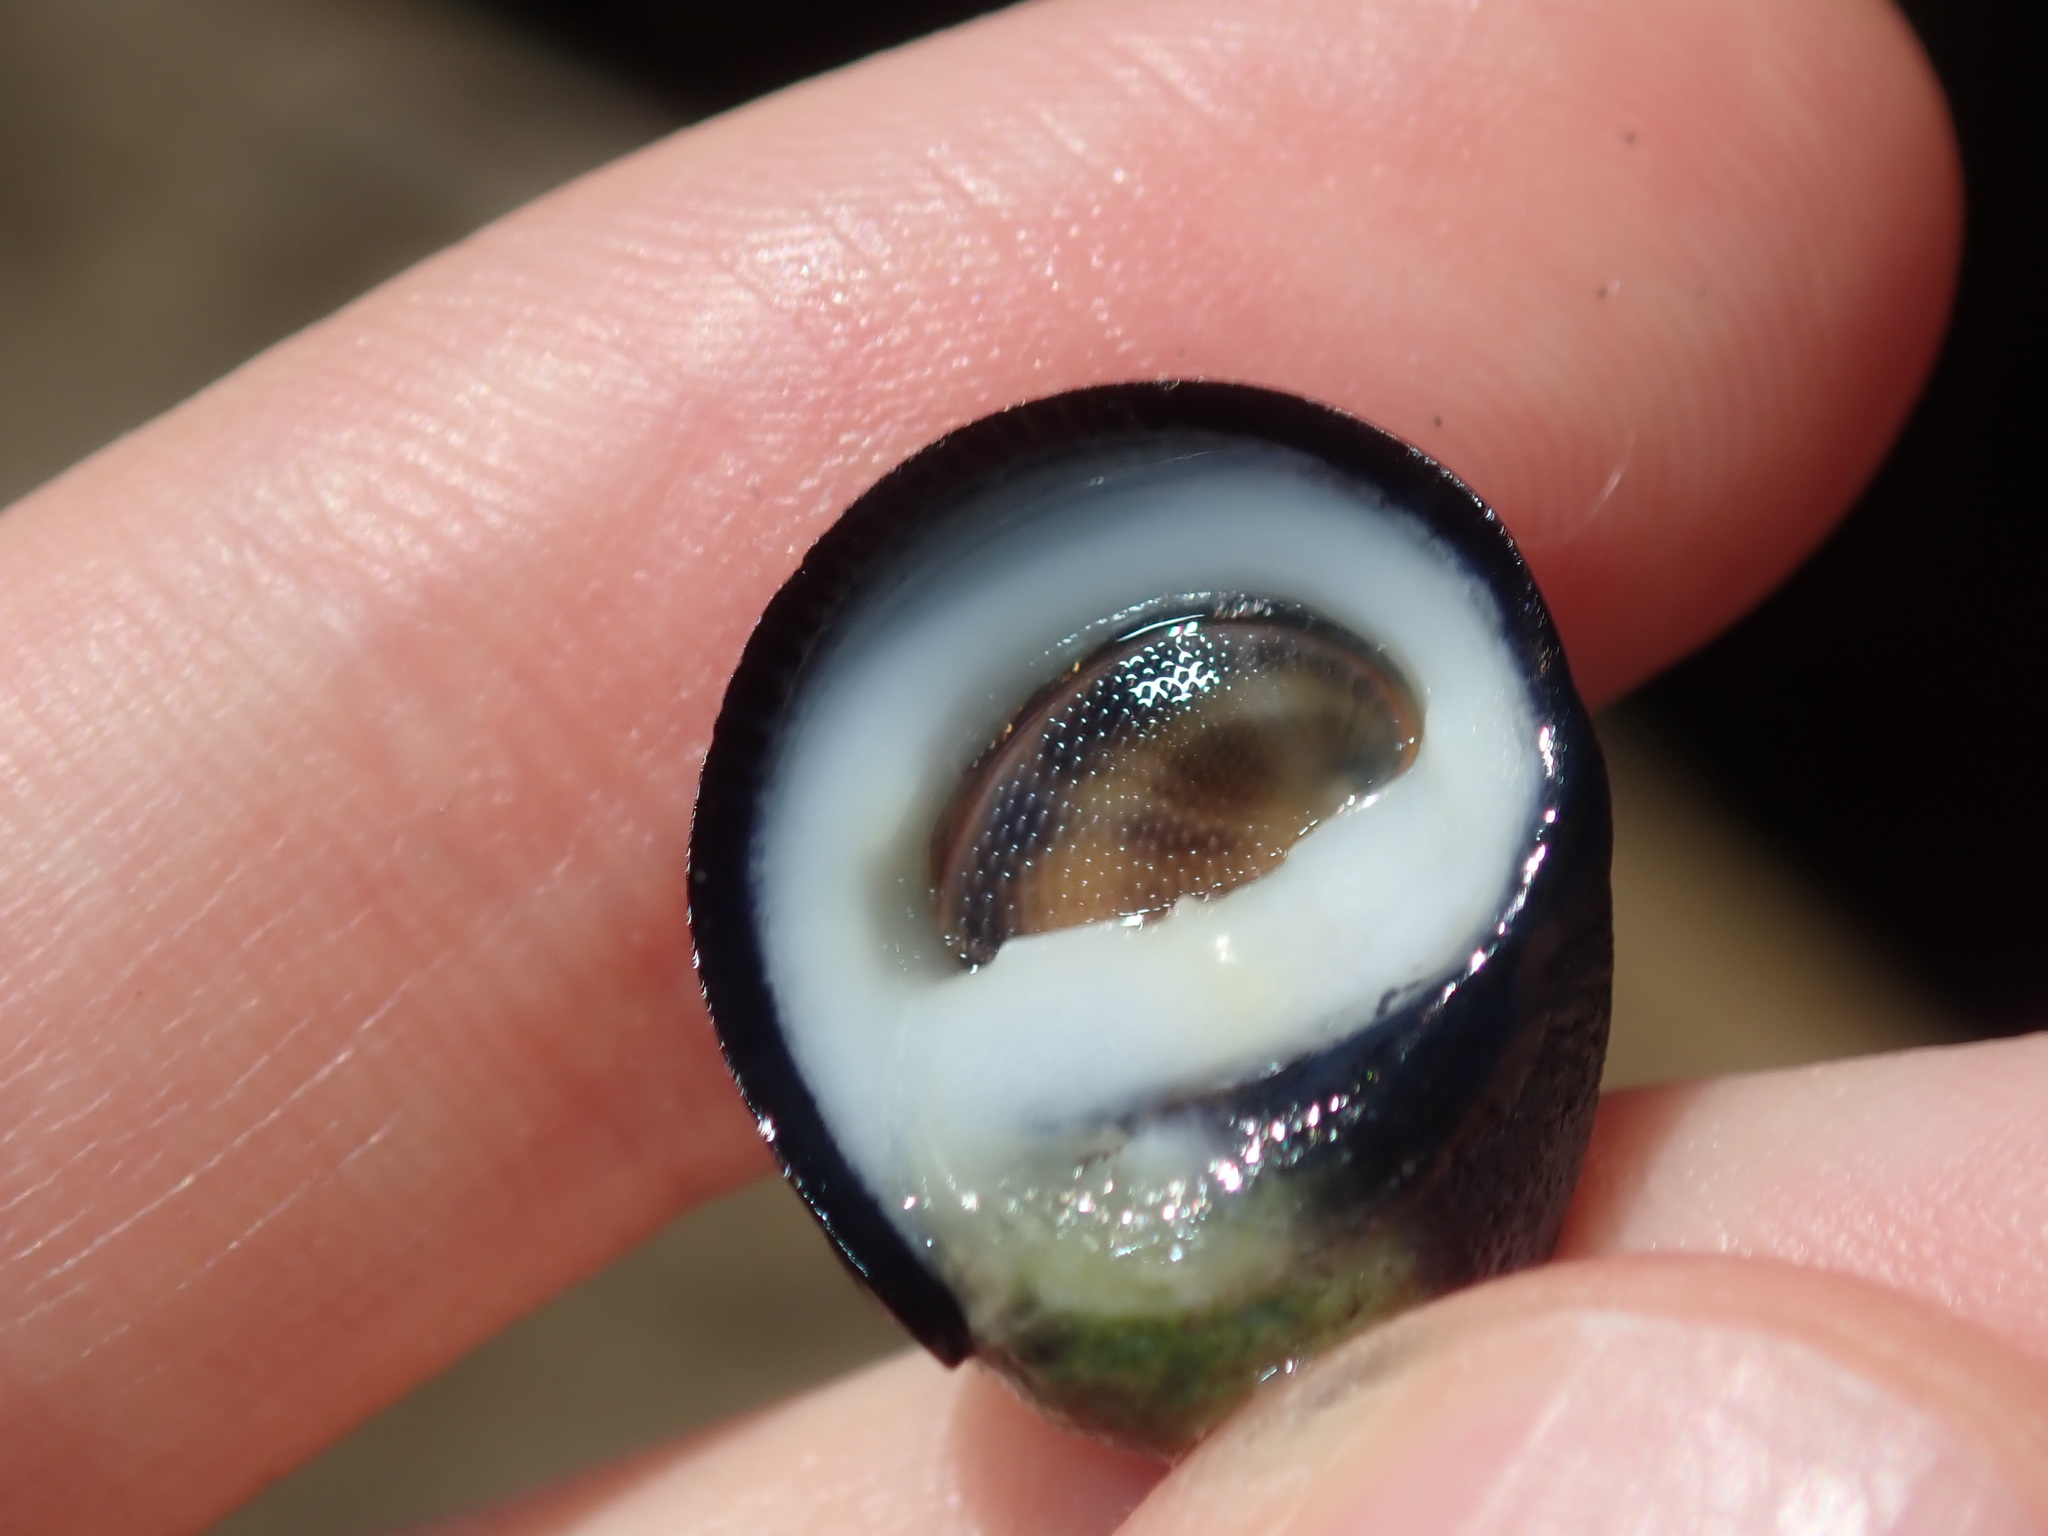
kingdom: Animalia
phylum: Mollusca
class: Gastropoda
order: Cycloneritida
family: Neritidae
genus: Nerita
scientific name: Nerita melanotragus
